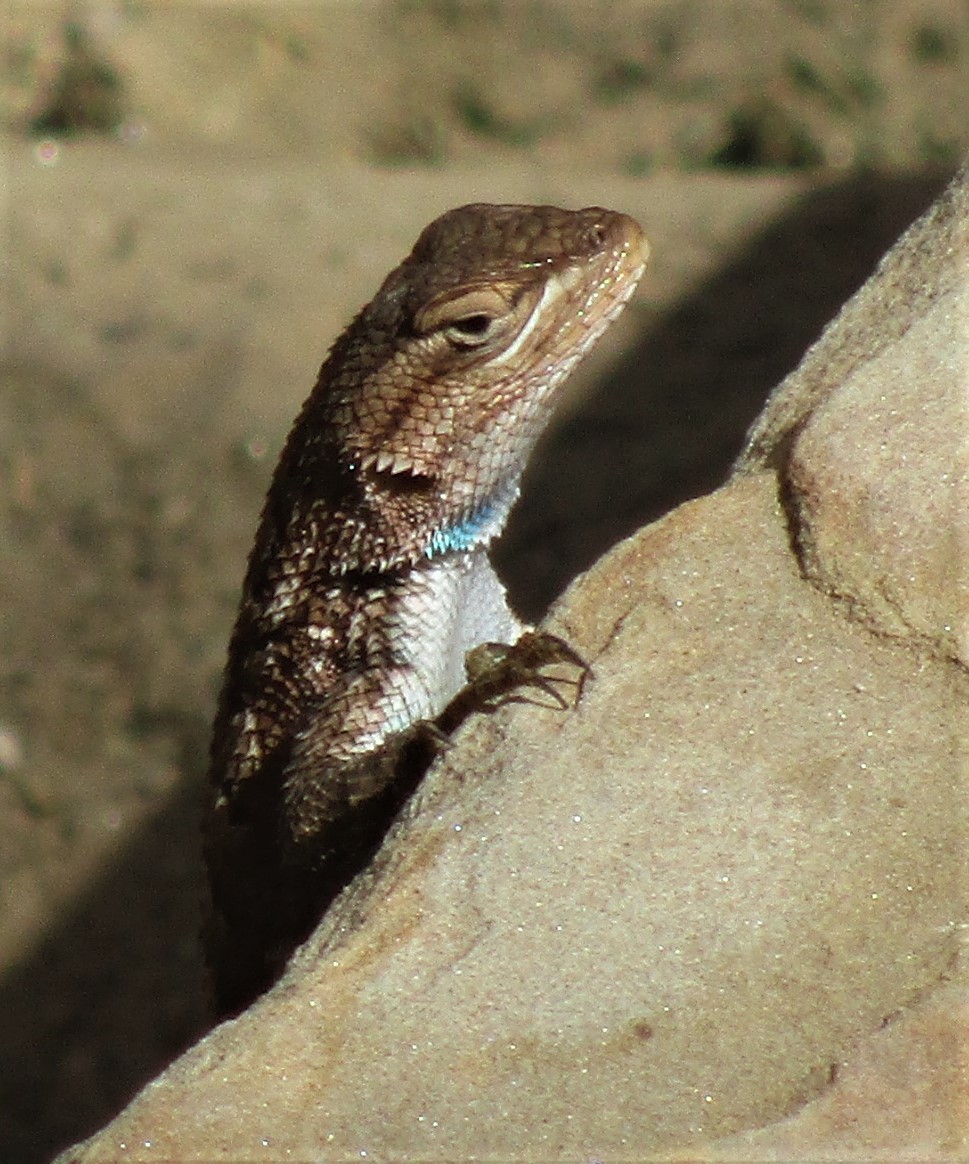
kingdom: Animalia
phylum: Chordata
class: Squamata
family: Phrynosomatidae
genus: Sceloporus
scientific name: Sceloporus tristichus
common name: Plateau fence lizard
